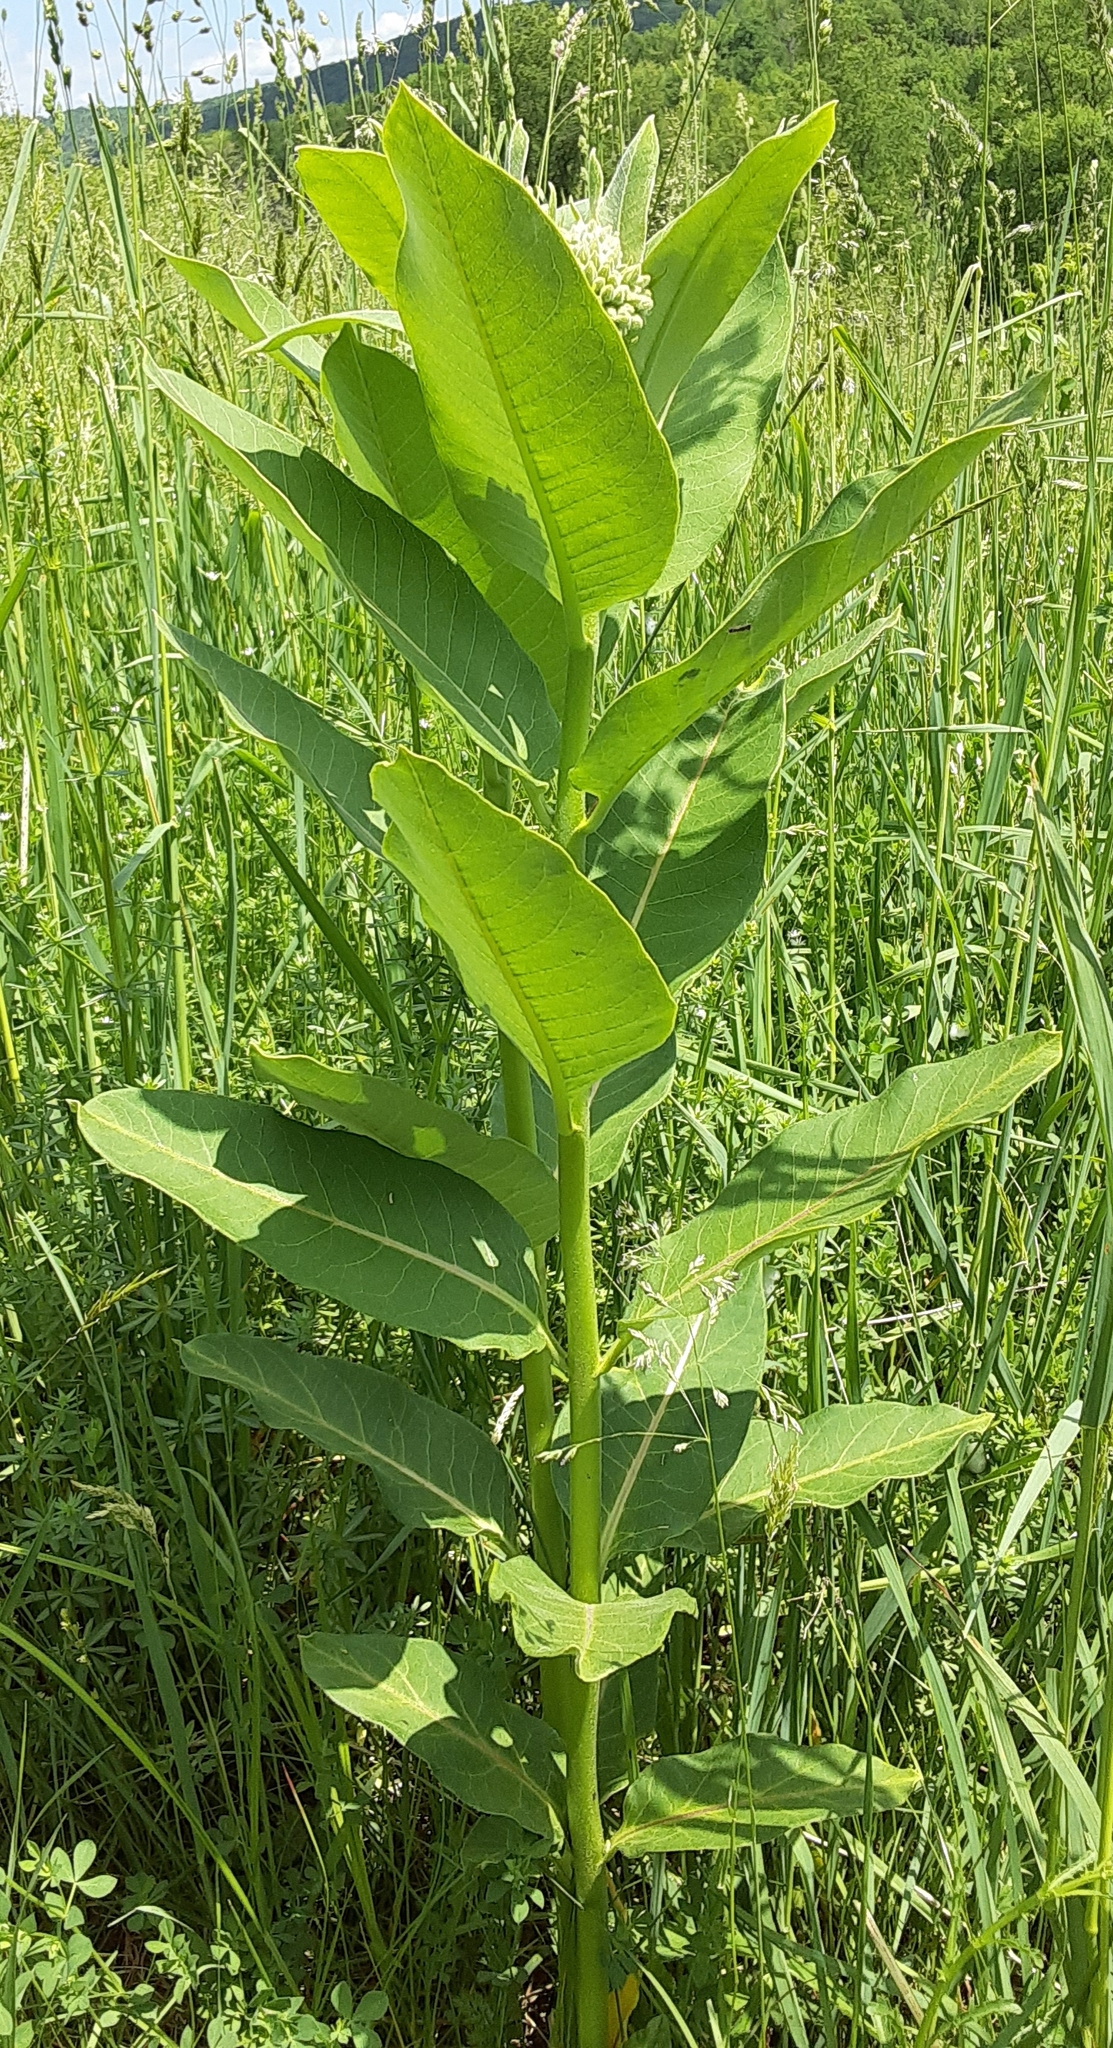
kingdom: Plantae
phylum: Tracheophyta
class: Magnoliopsida
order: Gentianales
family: Apocynaceae
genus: Asclepias
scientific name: Asclepias syriaca
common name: Common milkweed
